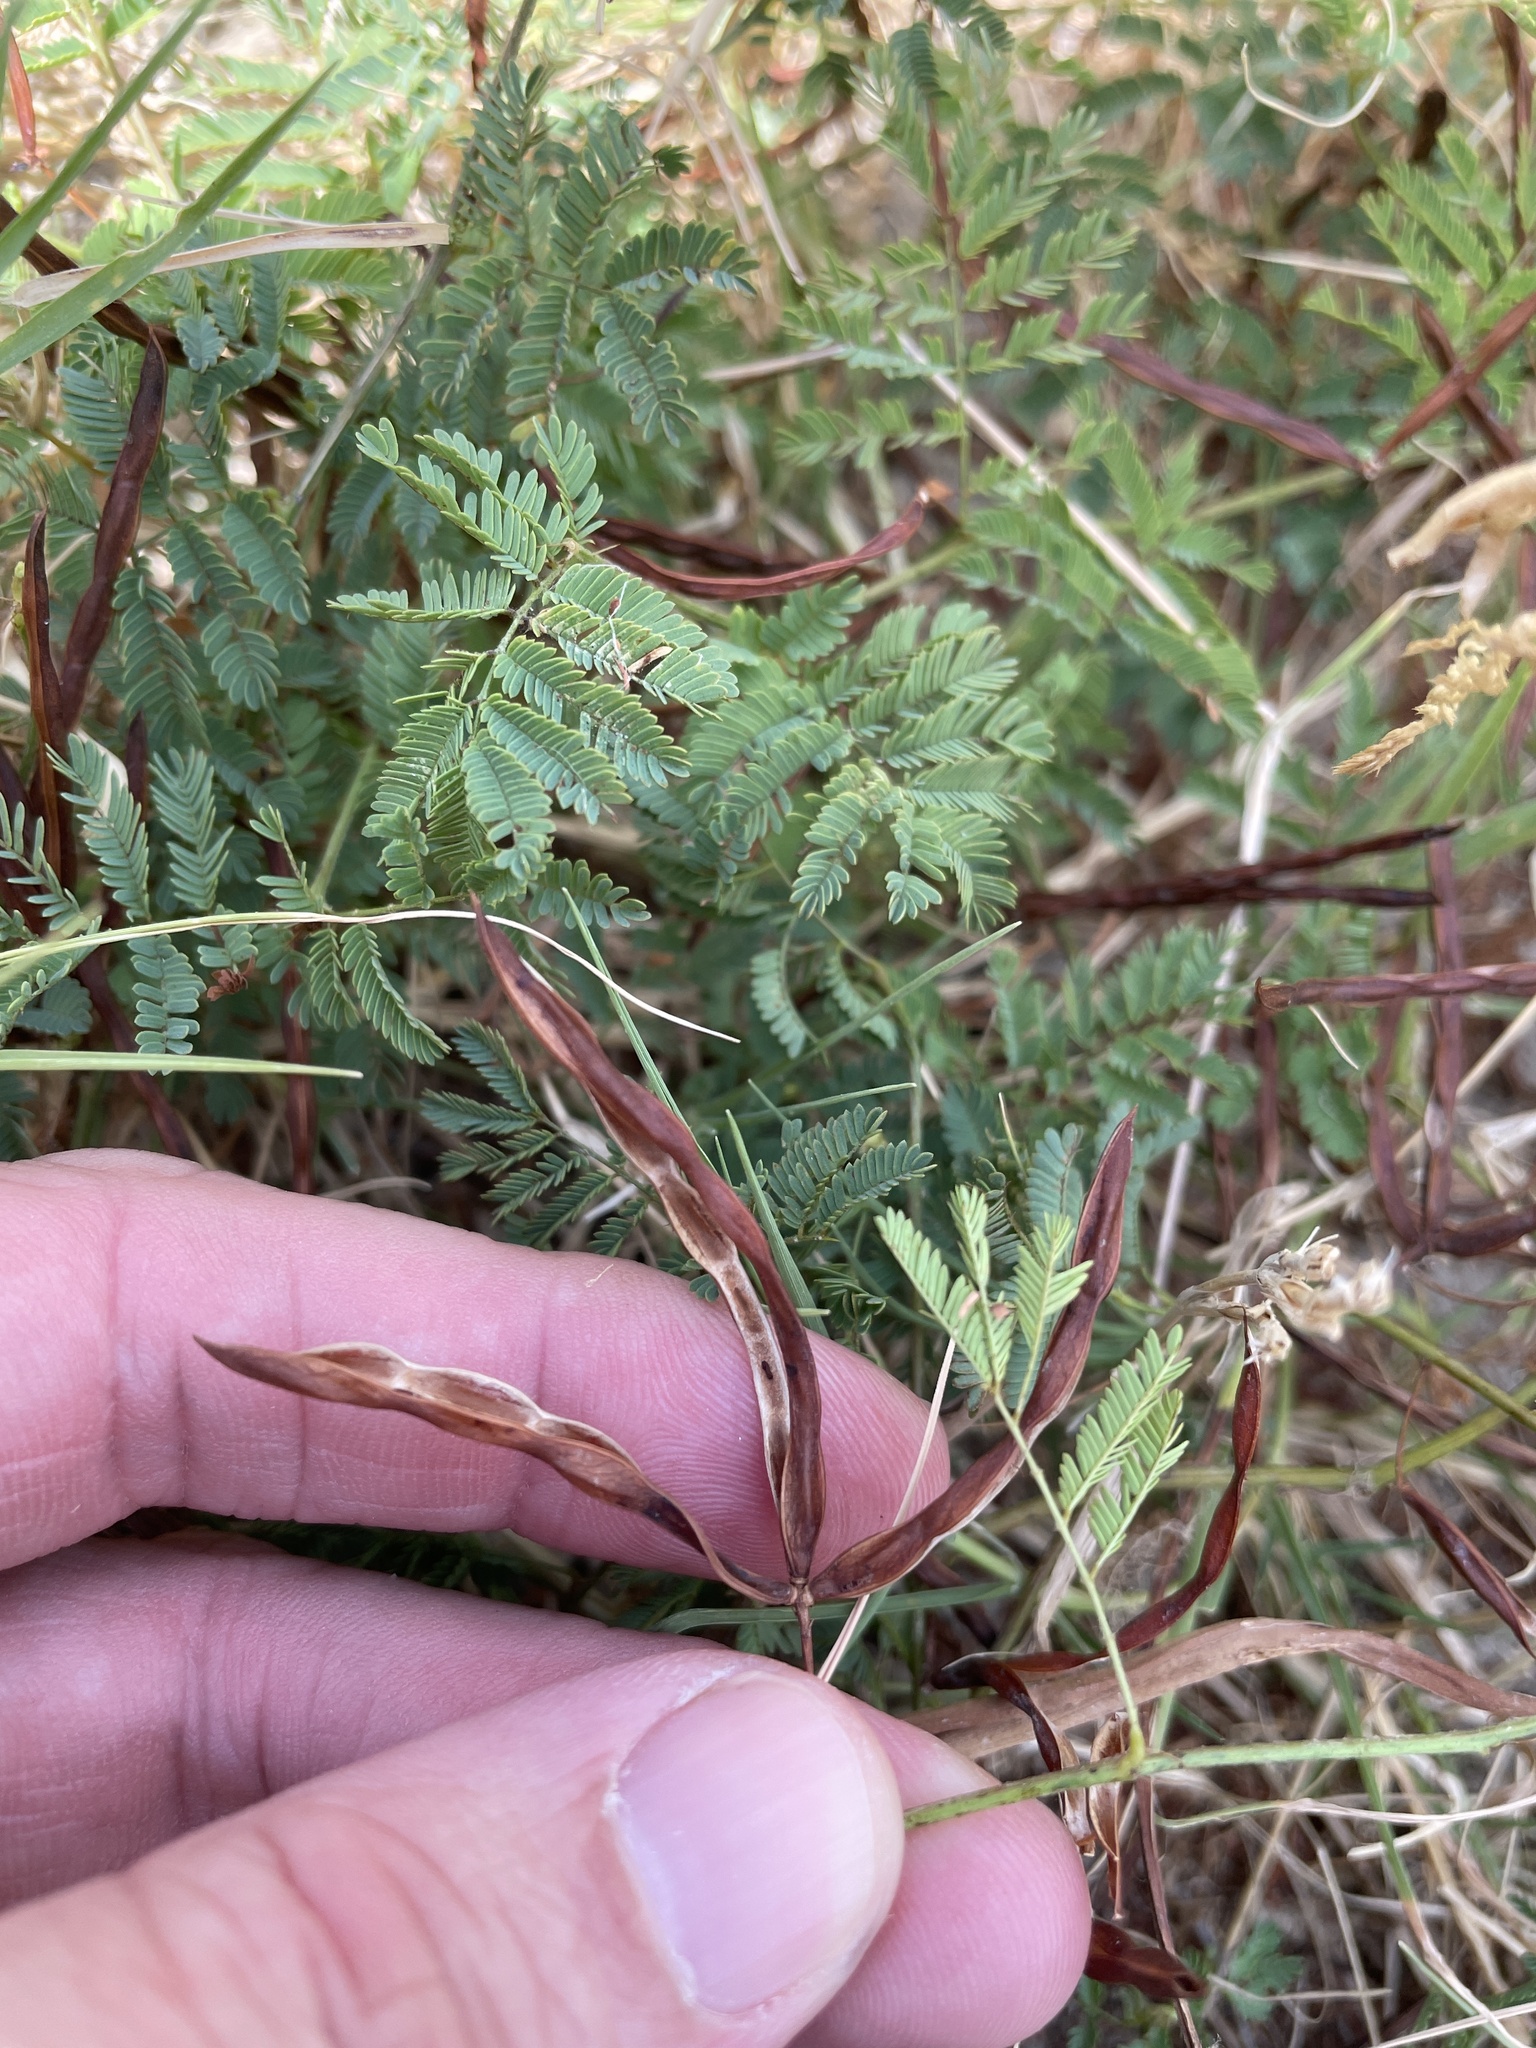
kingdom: Plantae
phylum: Tracheophyta
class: Magnoliopsida
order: Fabales
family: Fabaceae
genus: Desmanthus
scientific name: Desmanthus leptolobus
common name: Prairie-mimosa
